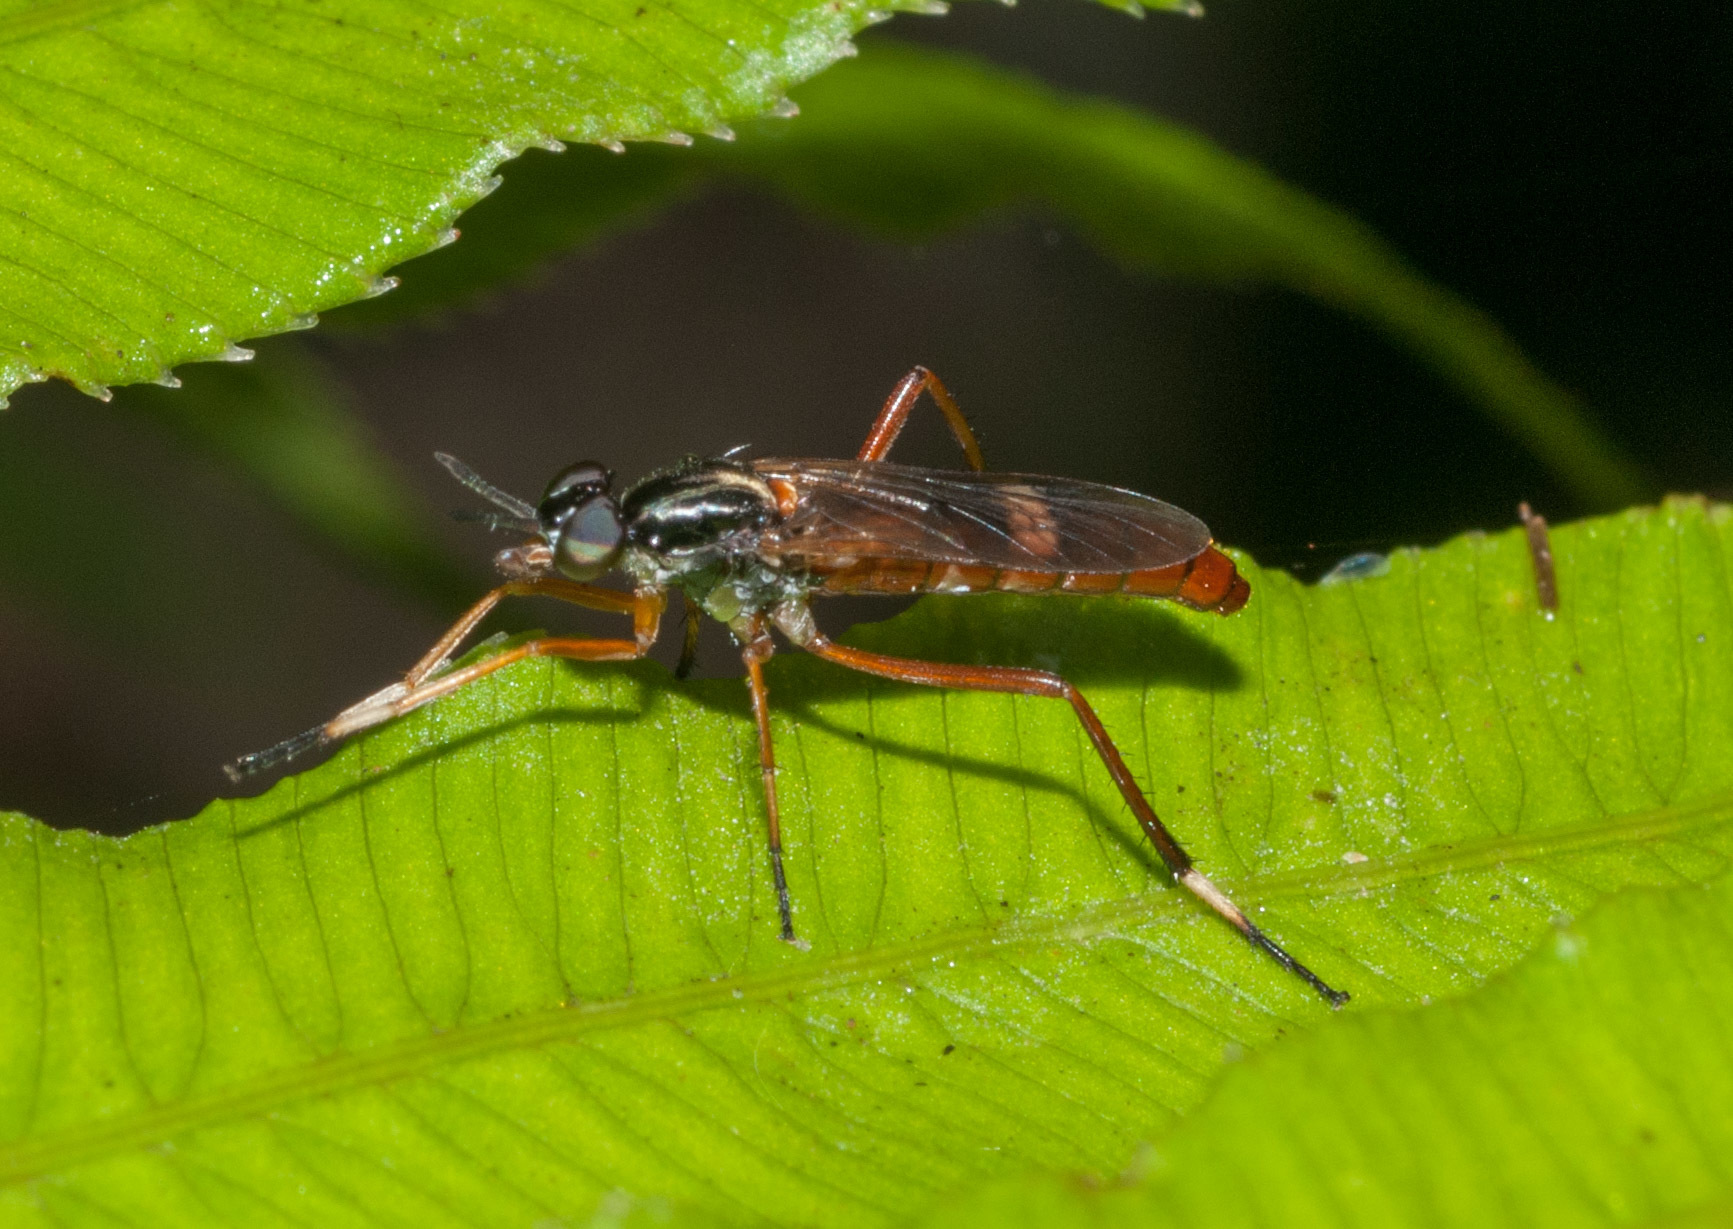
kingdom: Animalia
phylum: Arthropoda
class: Insecta
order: Diptera
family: Therevidae
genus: Evansomyia
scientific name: Evansomyia
